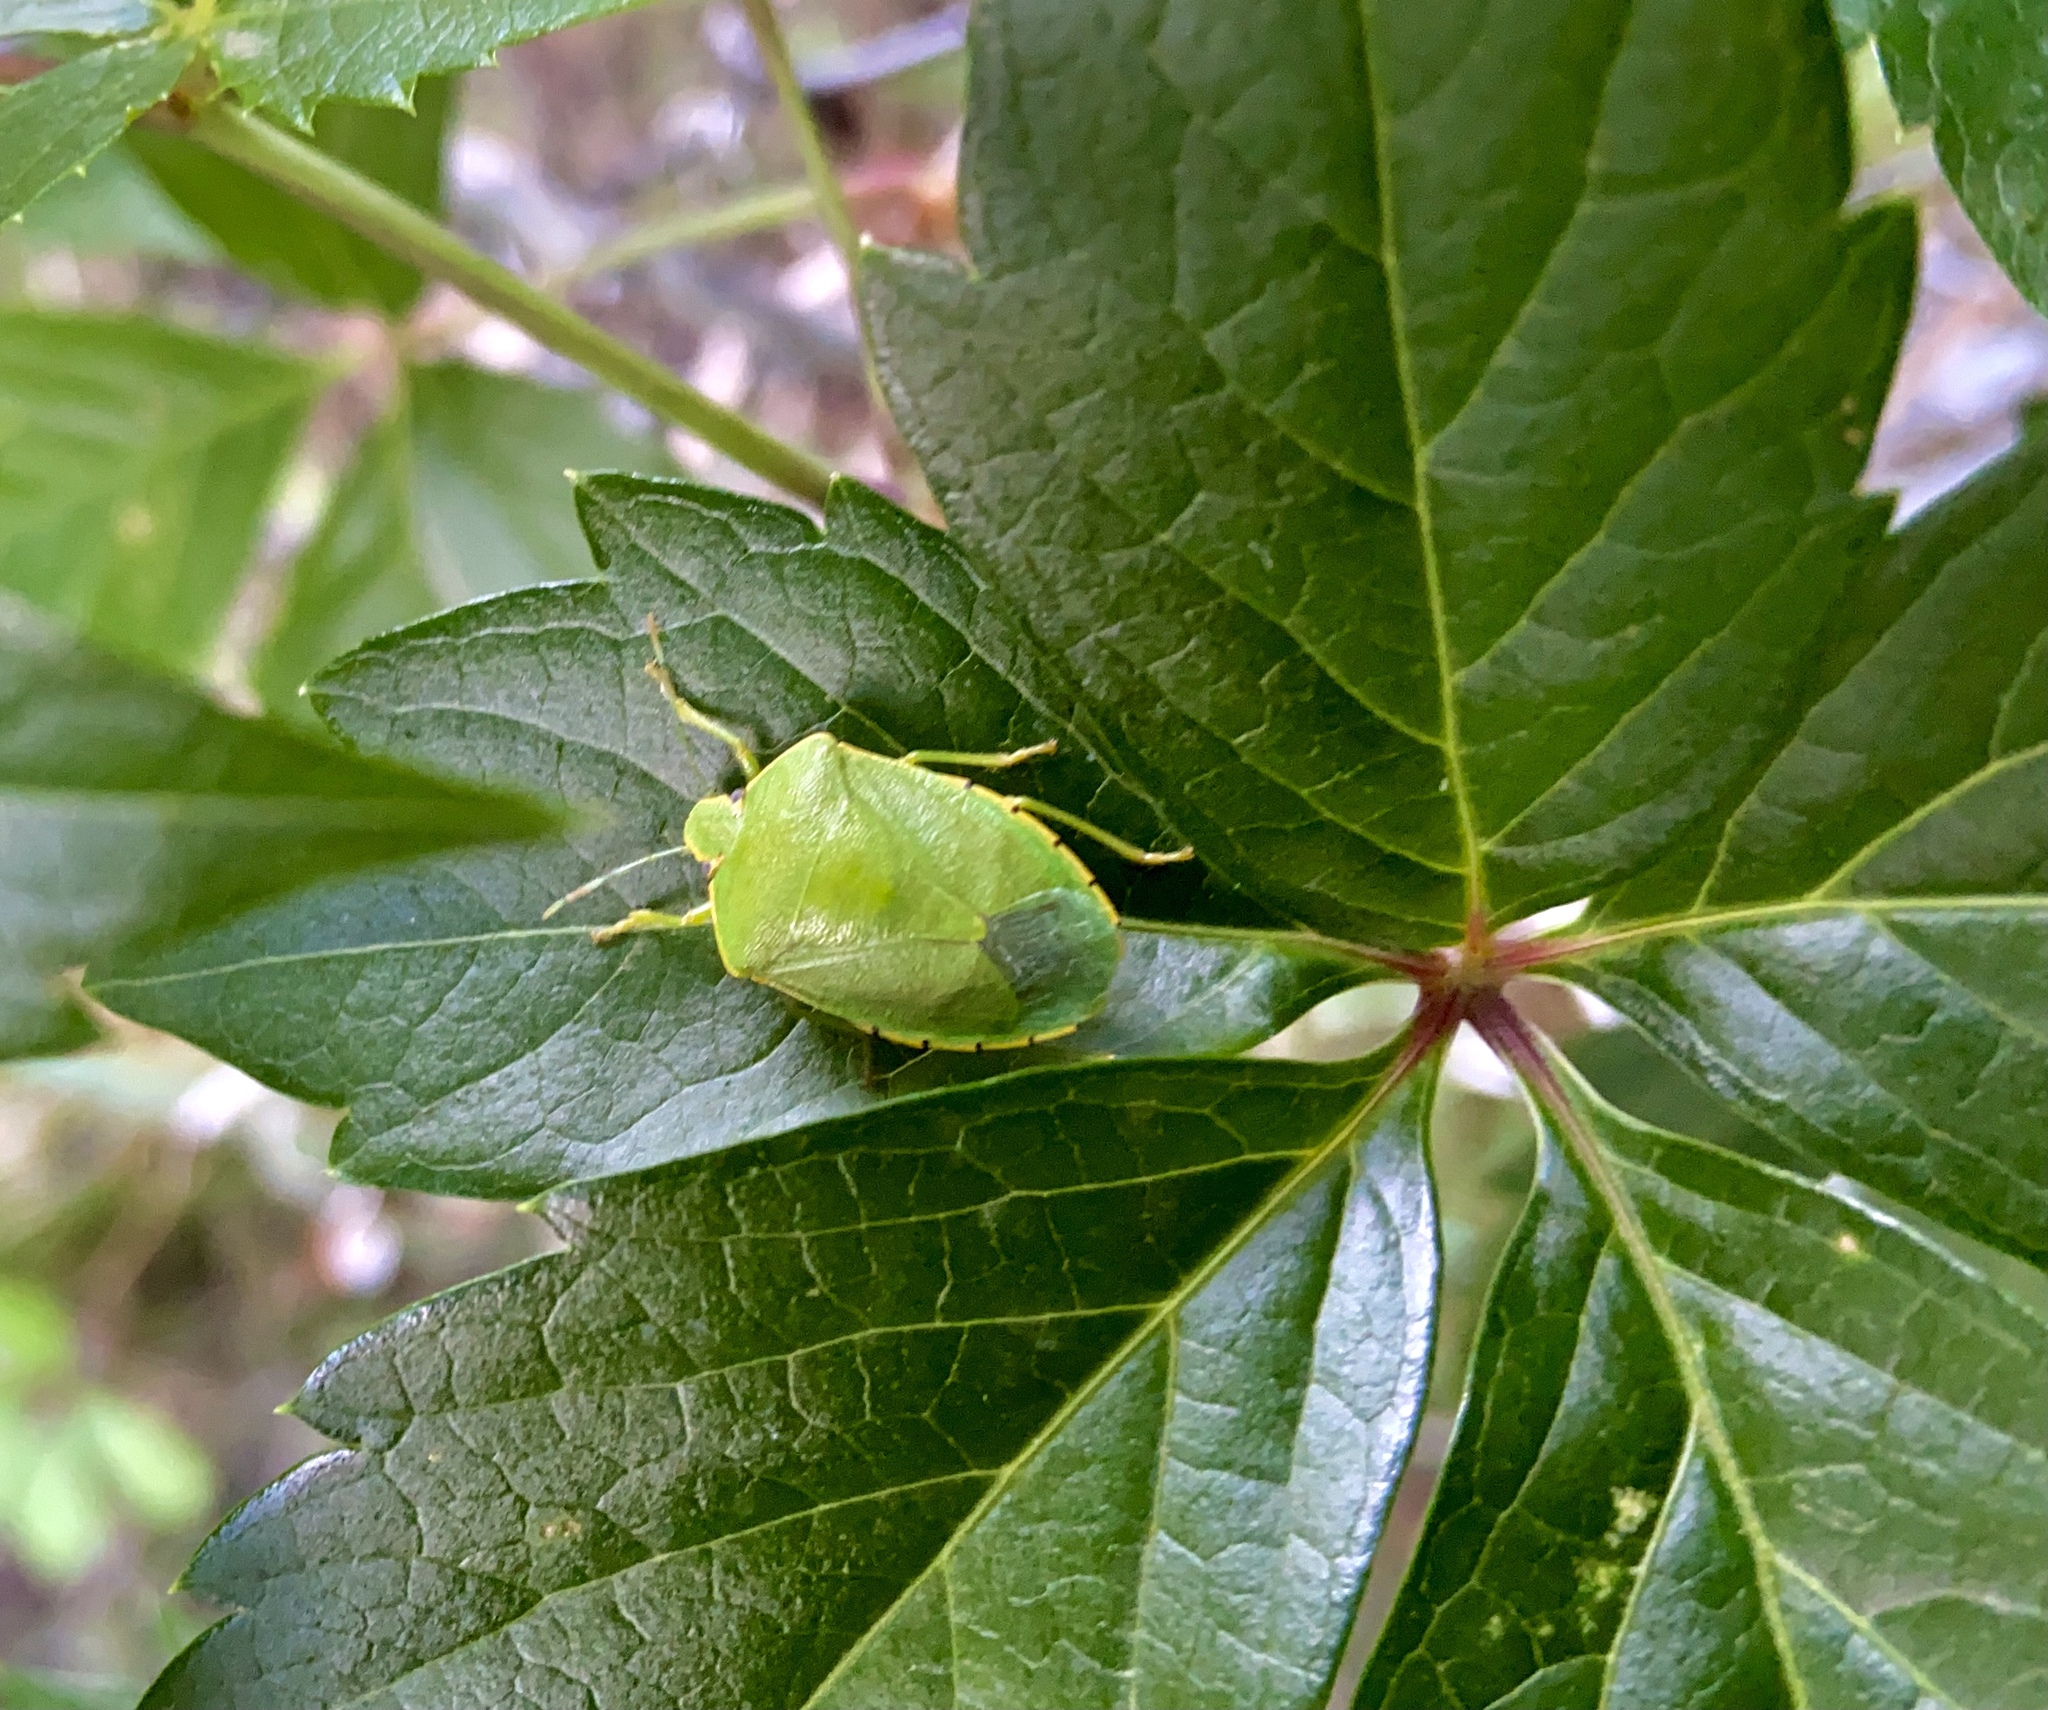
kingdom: Animalia
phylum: Arthropoda
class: Insecta
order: Hemiptera
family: Pentatomidae
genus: Chinavia
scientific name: Chinavia hilaris
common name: Green stink bug
